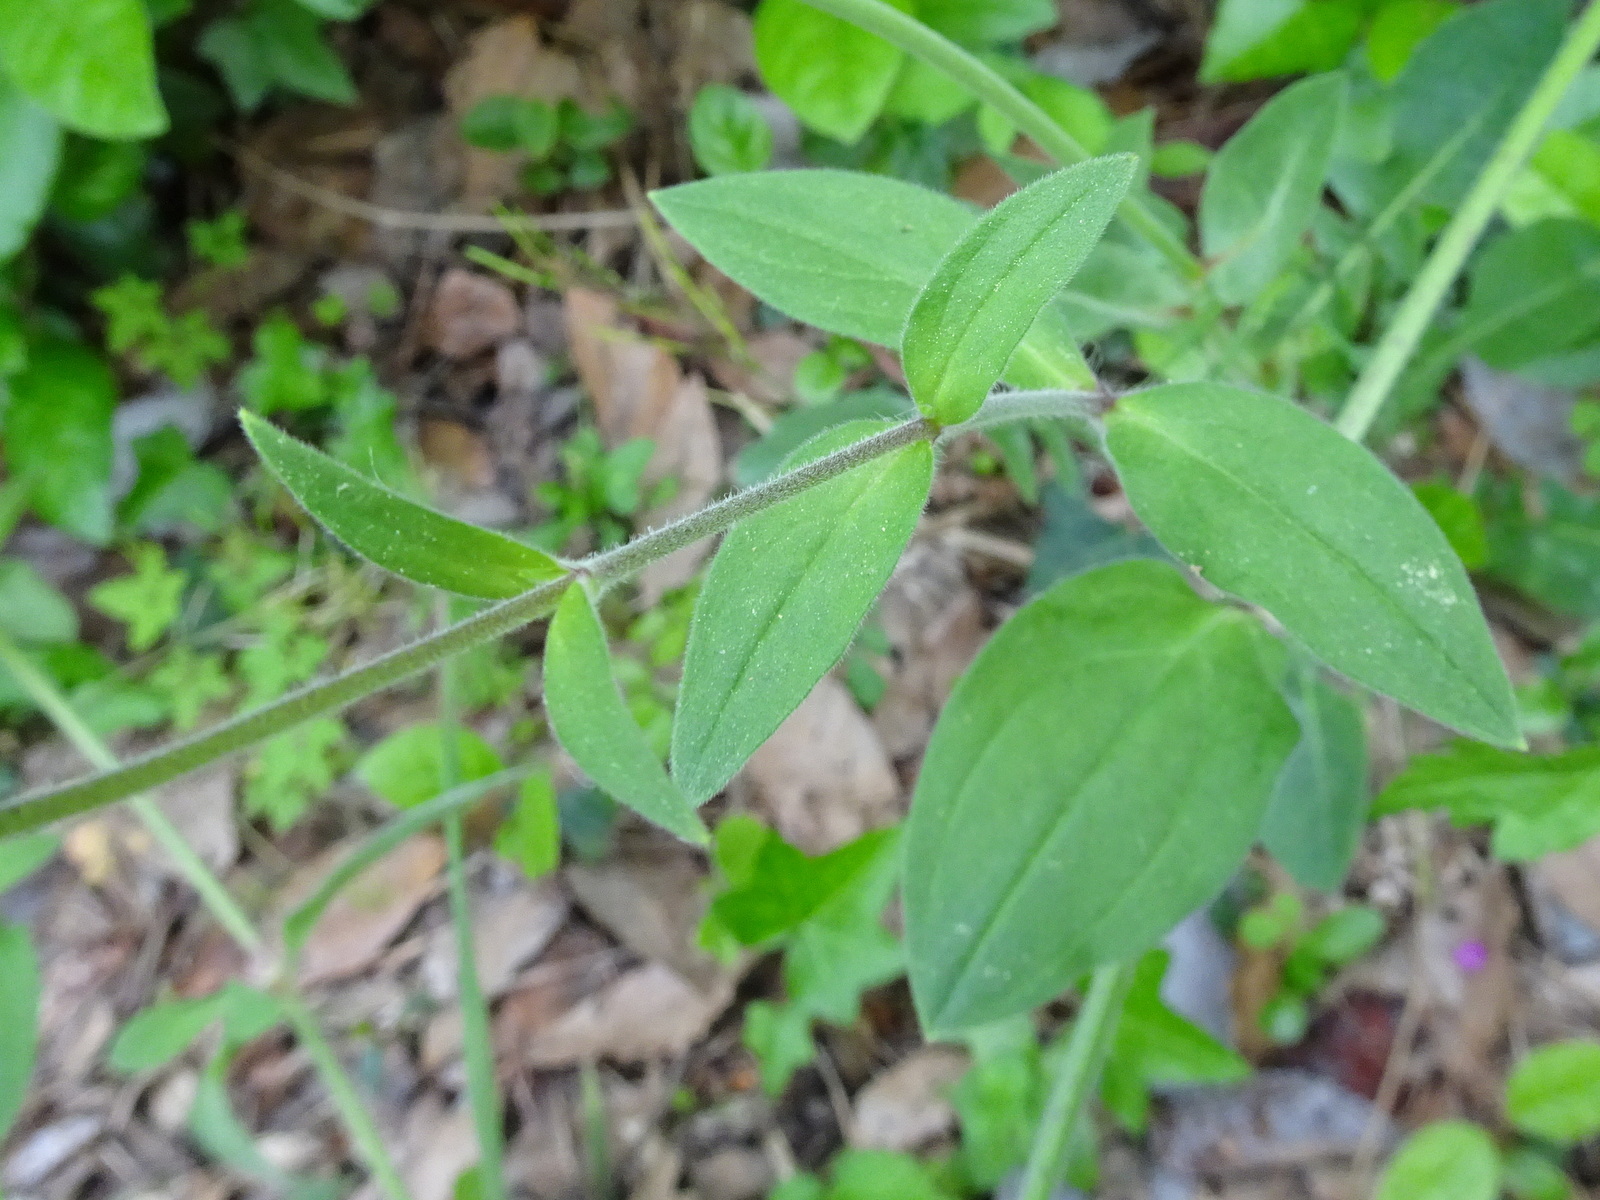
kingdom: Plantae
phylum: Tracheophyta
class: Magnoliopsida
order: Caryophyllales
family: Caryophyllaceae
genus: Silene
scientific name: Silene latifolia
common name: White campion
